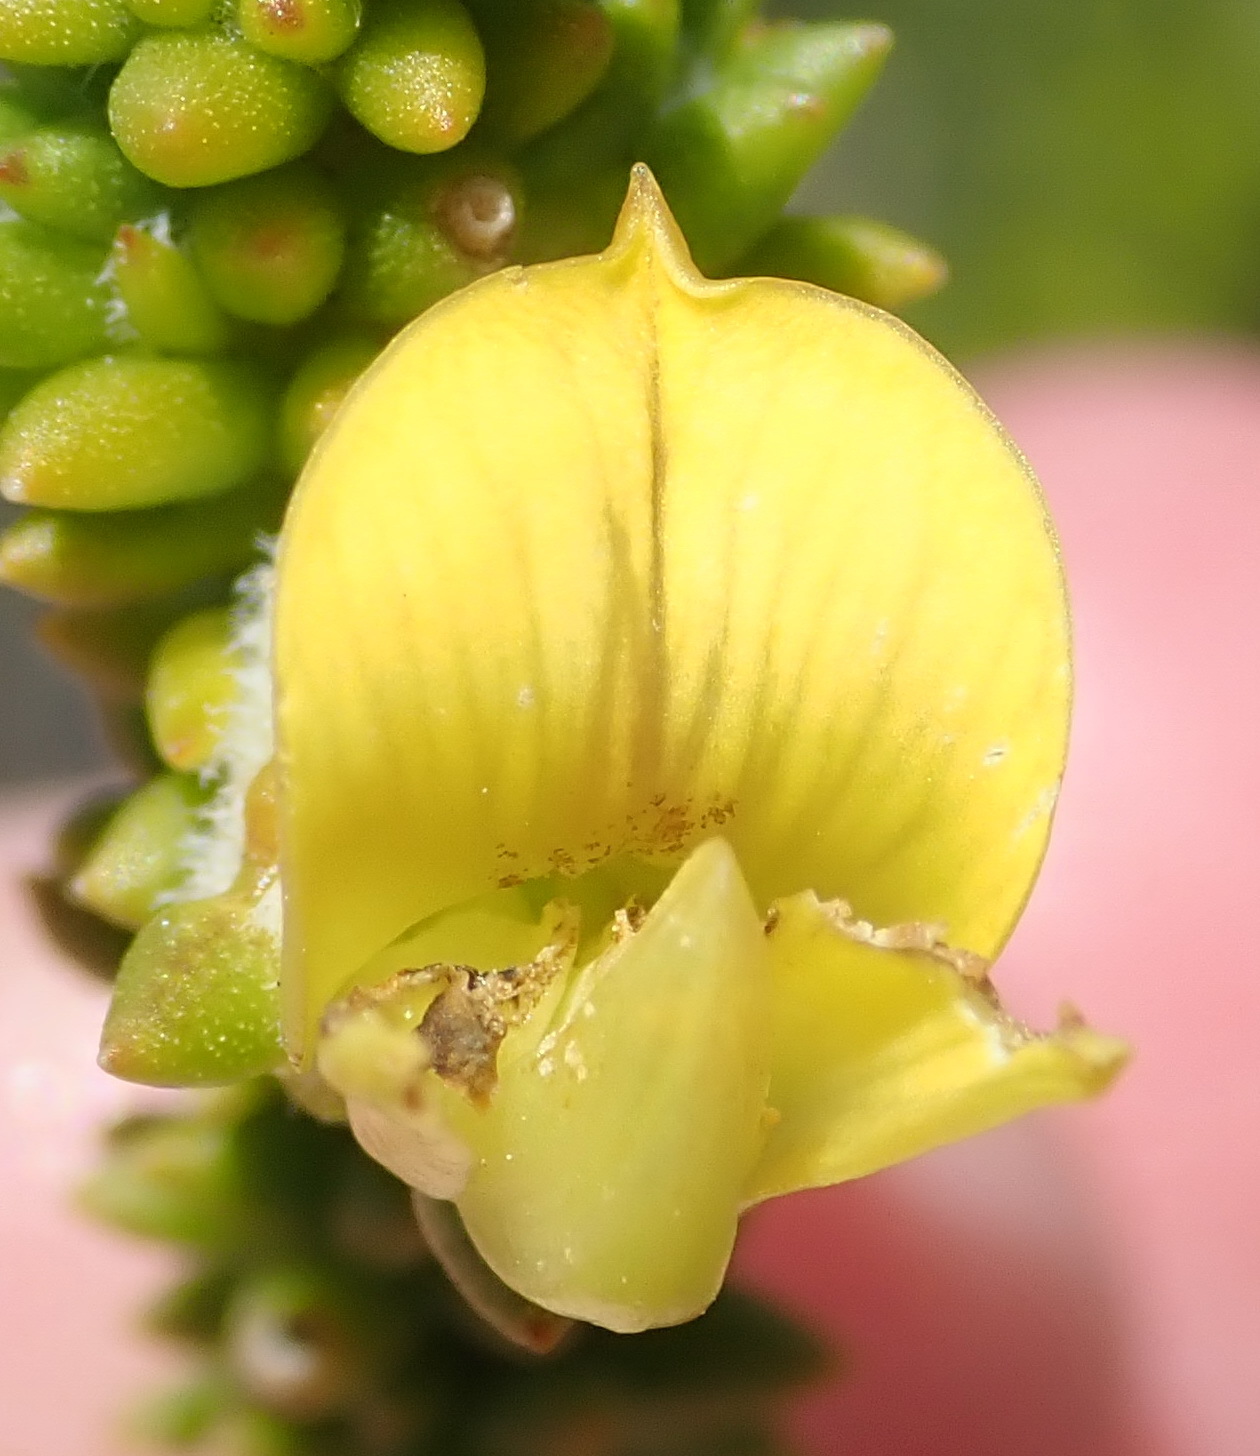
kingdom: Plantae
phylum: Tracheophyta
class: Magnoliopsida
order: Fabales
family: Fabaceae
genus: Aspalathus
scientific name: Aspalathus odontoloba
